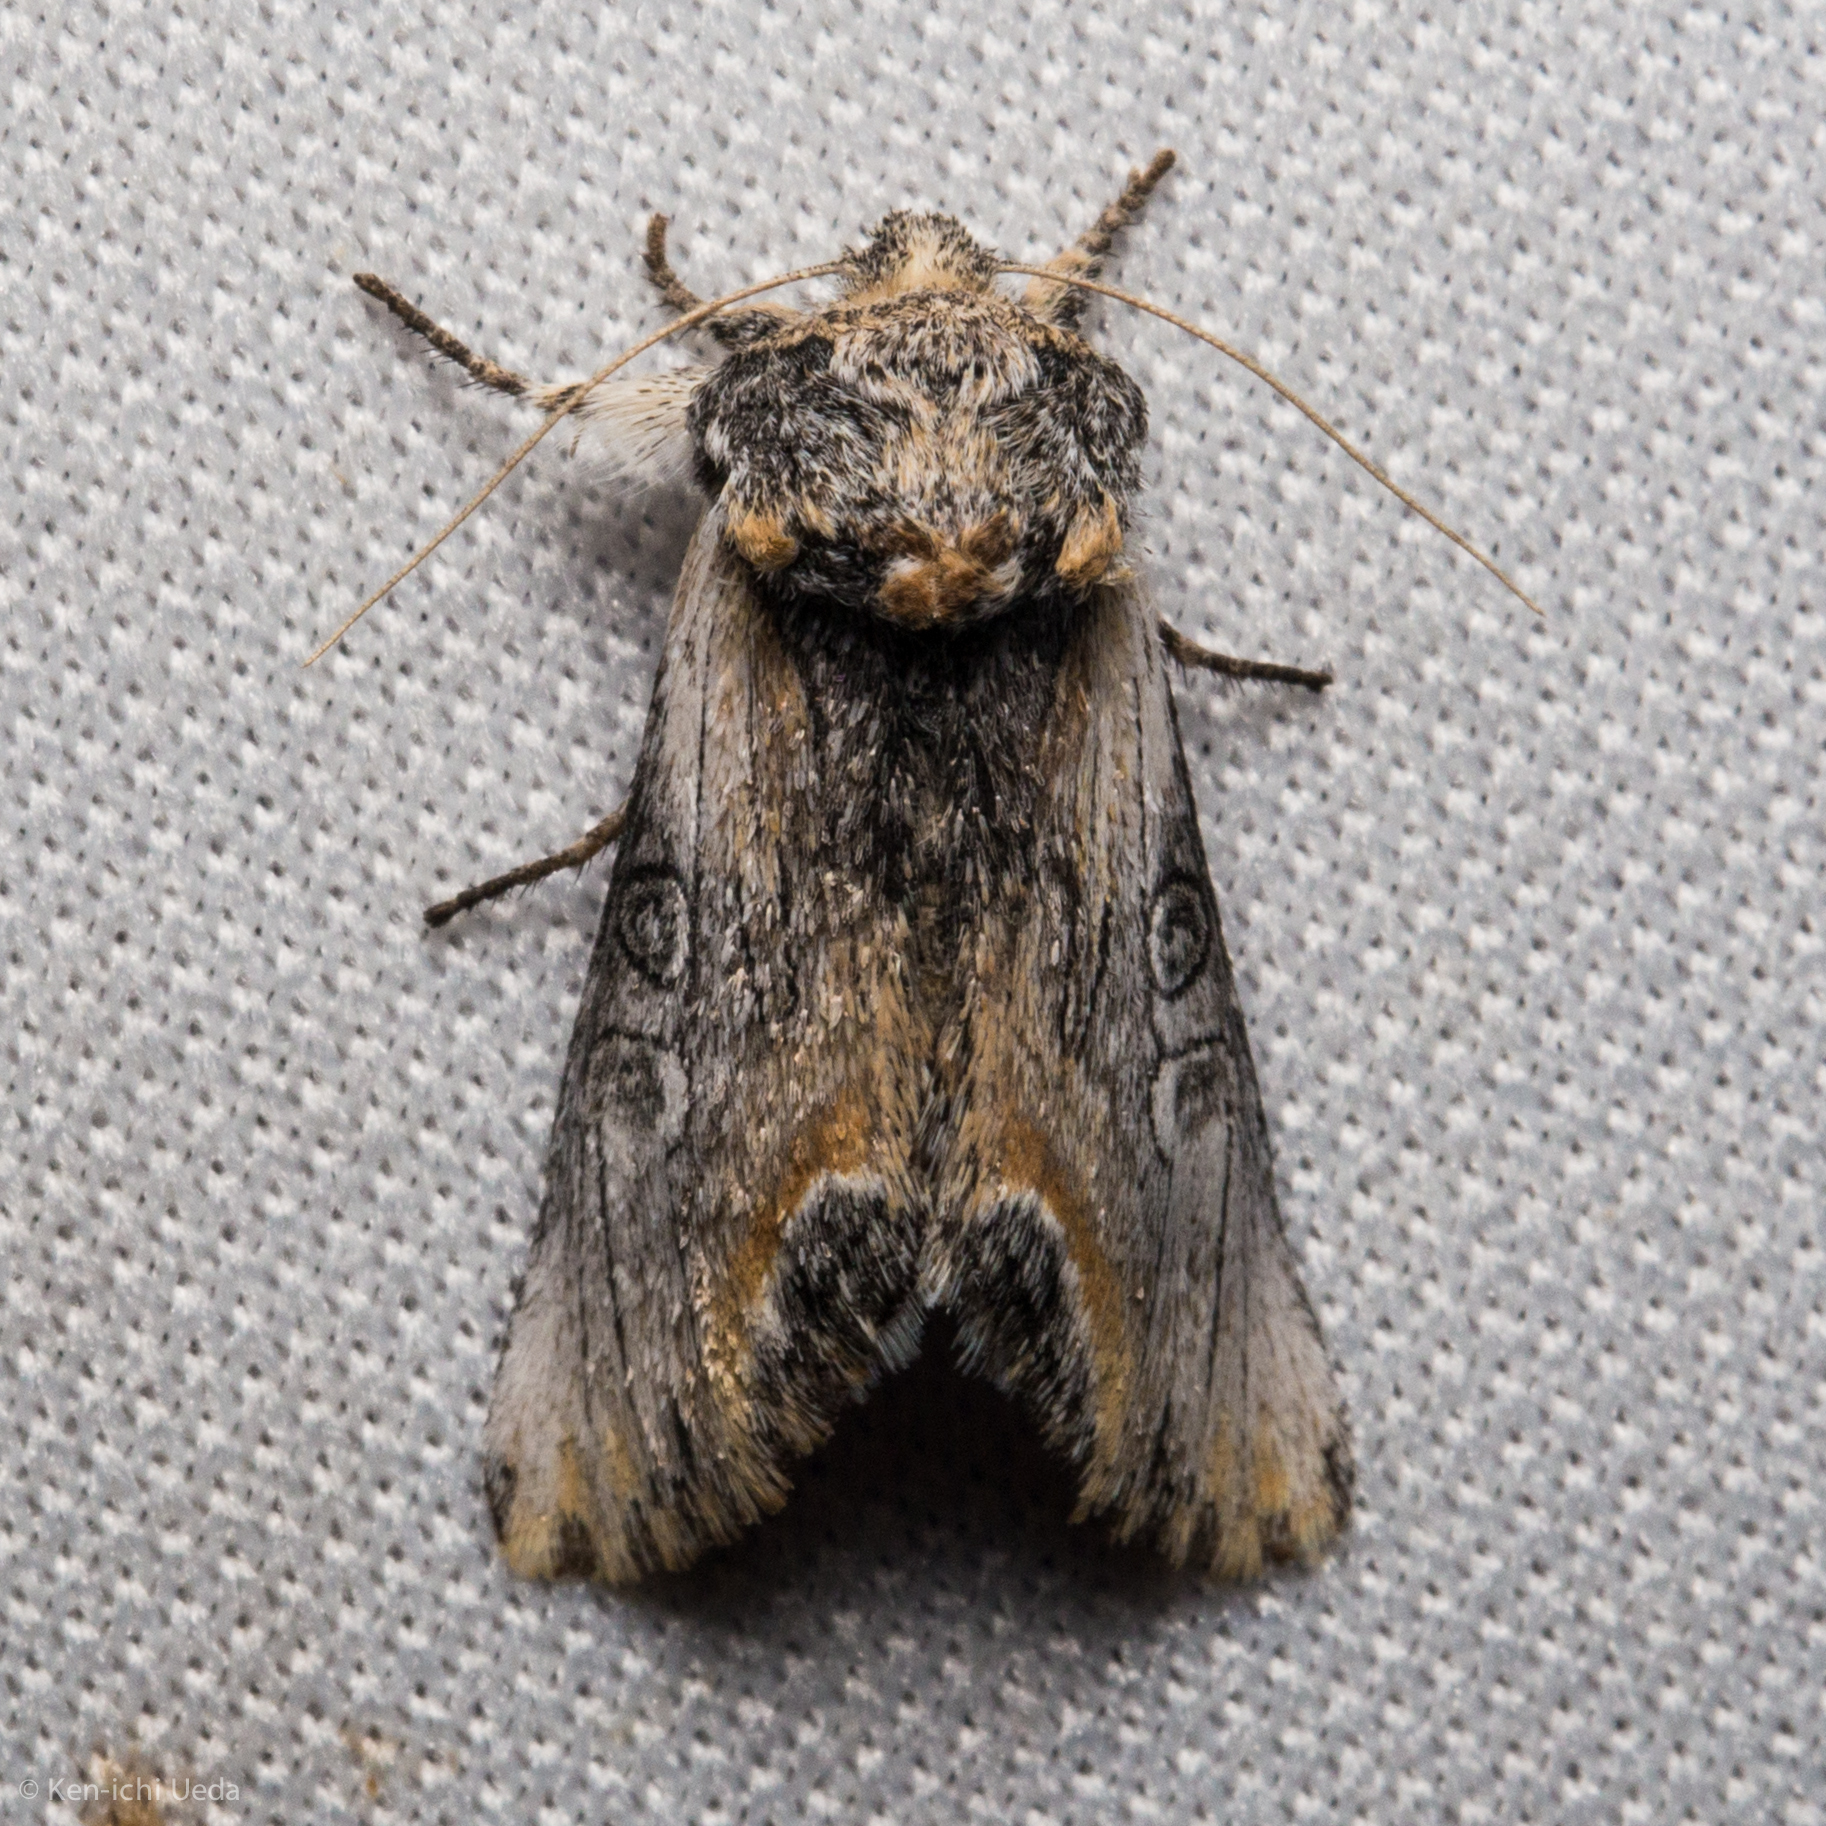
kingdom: Animalia
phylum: Arthropoda
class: Insecta
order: Lepidoptera
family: Noctuidae
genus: Walterella
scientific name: Walterella ocellata
